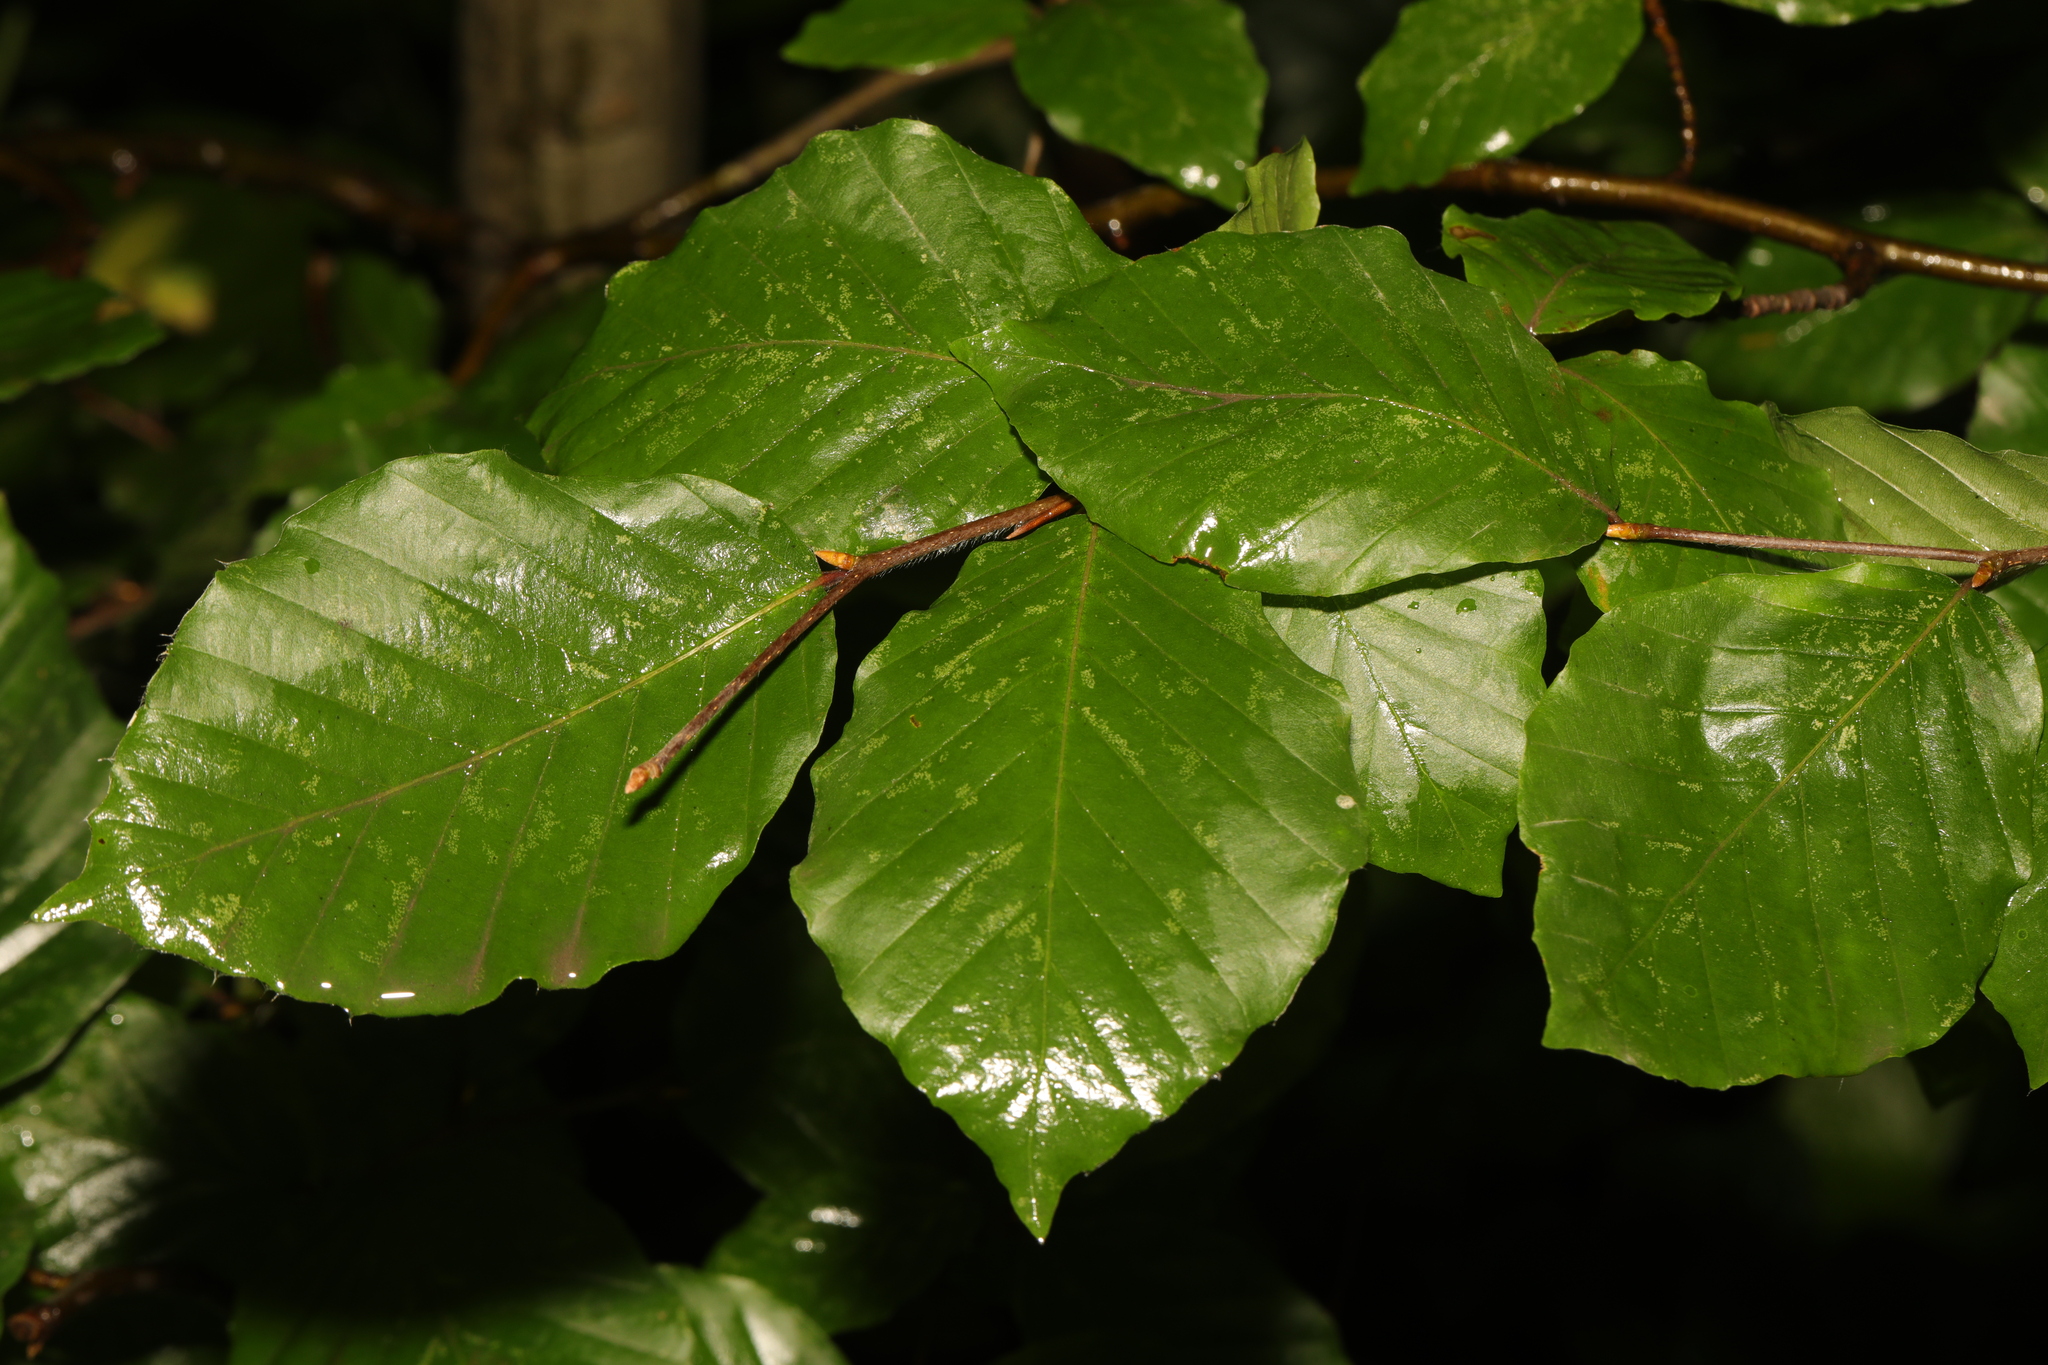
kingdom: Plantae
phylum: Tracheophyta
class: Magnoliopsida
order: Fagales
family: Fagaceae
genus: Fagus
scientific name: Fagus sylvatica
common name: Beech
